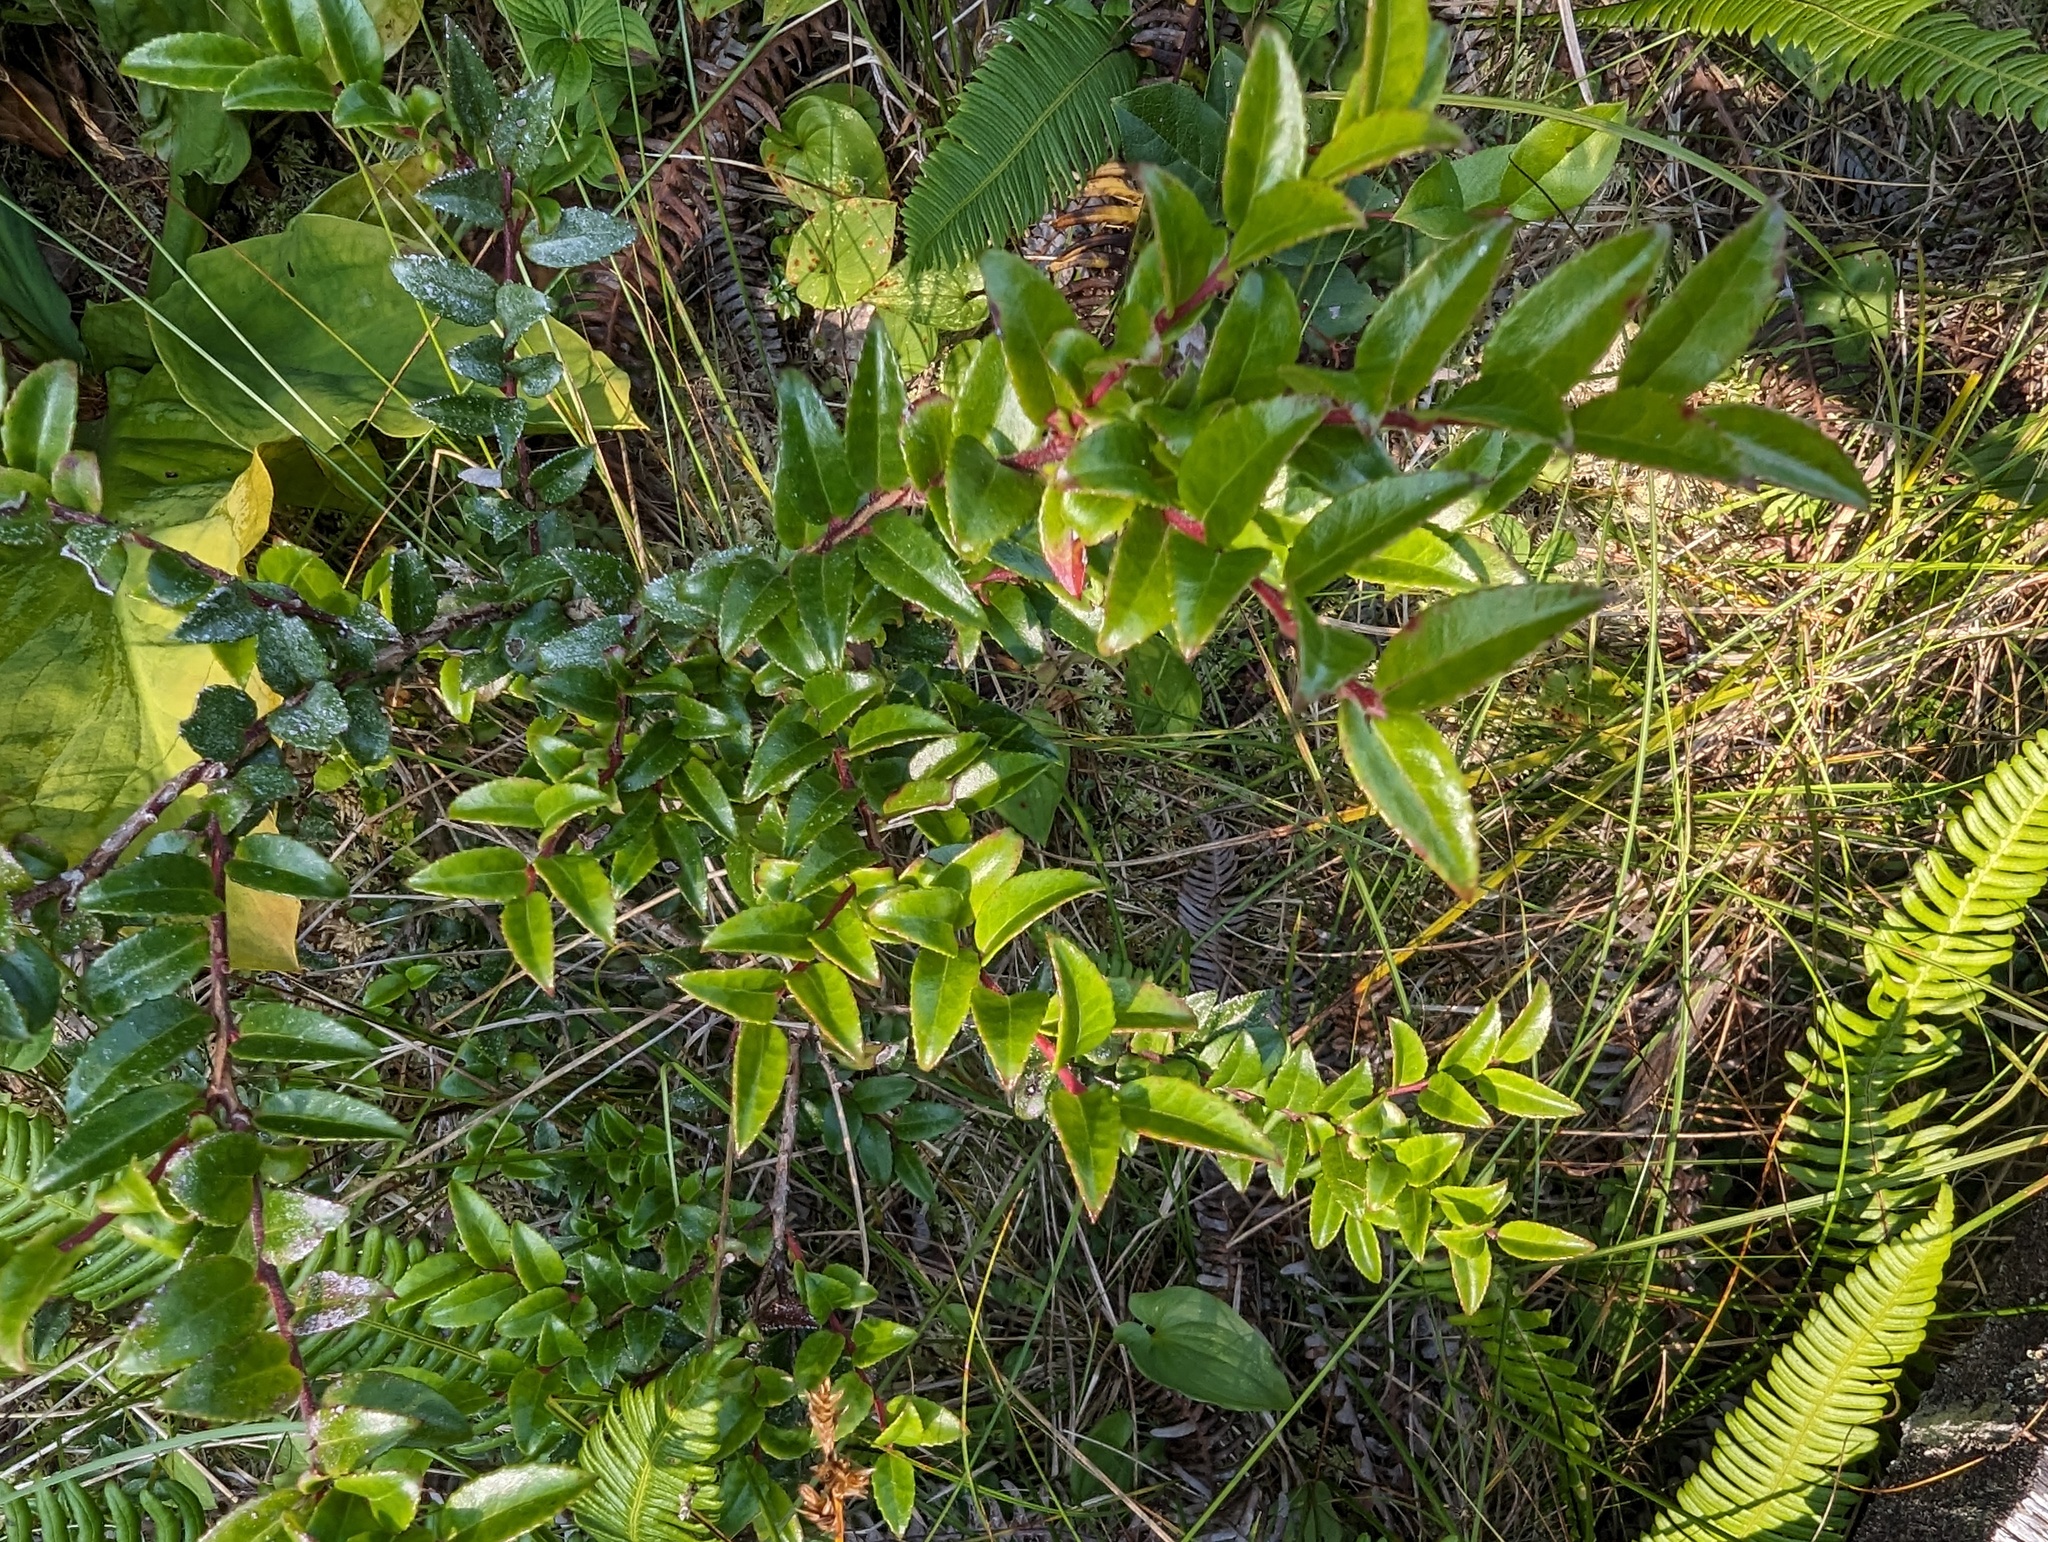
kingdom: Plantae
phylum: Tracheophyta
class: Magnoliopsida
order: Ericales
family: Ericaceae
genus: Vaccinium
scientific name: Vaccinium ovatum
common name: California-huckleberry
